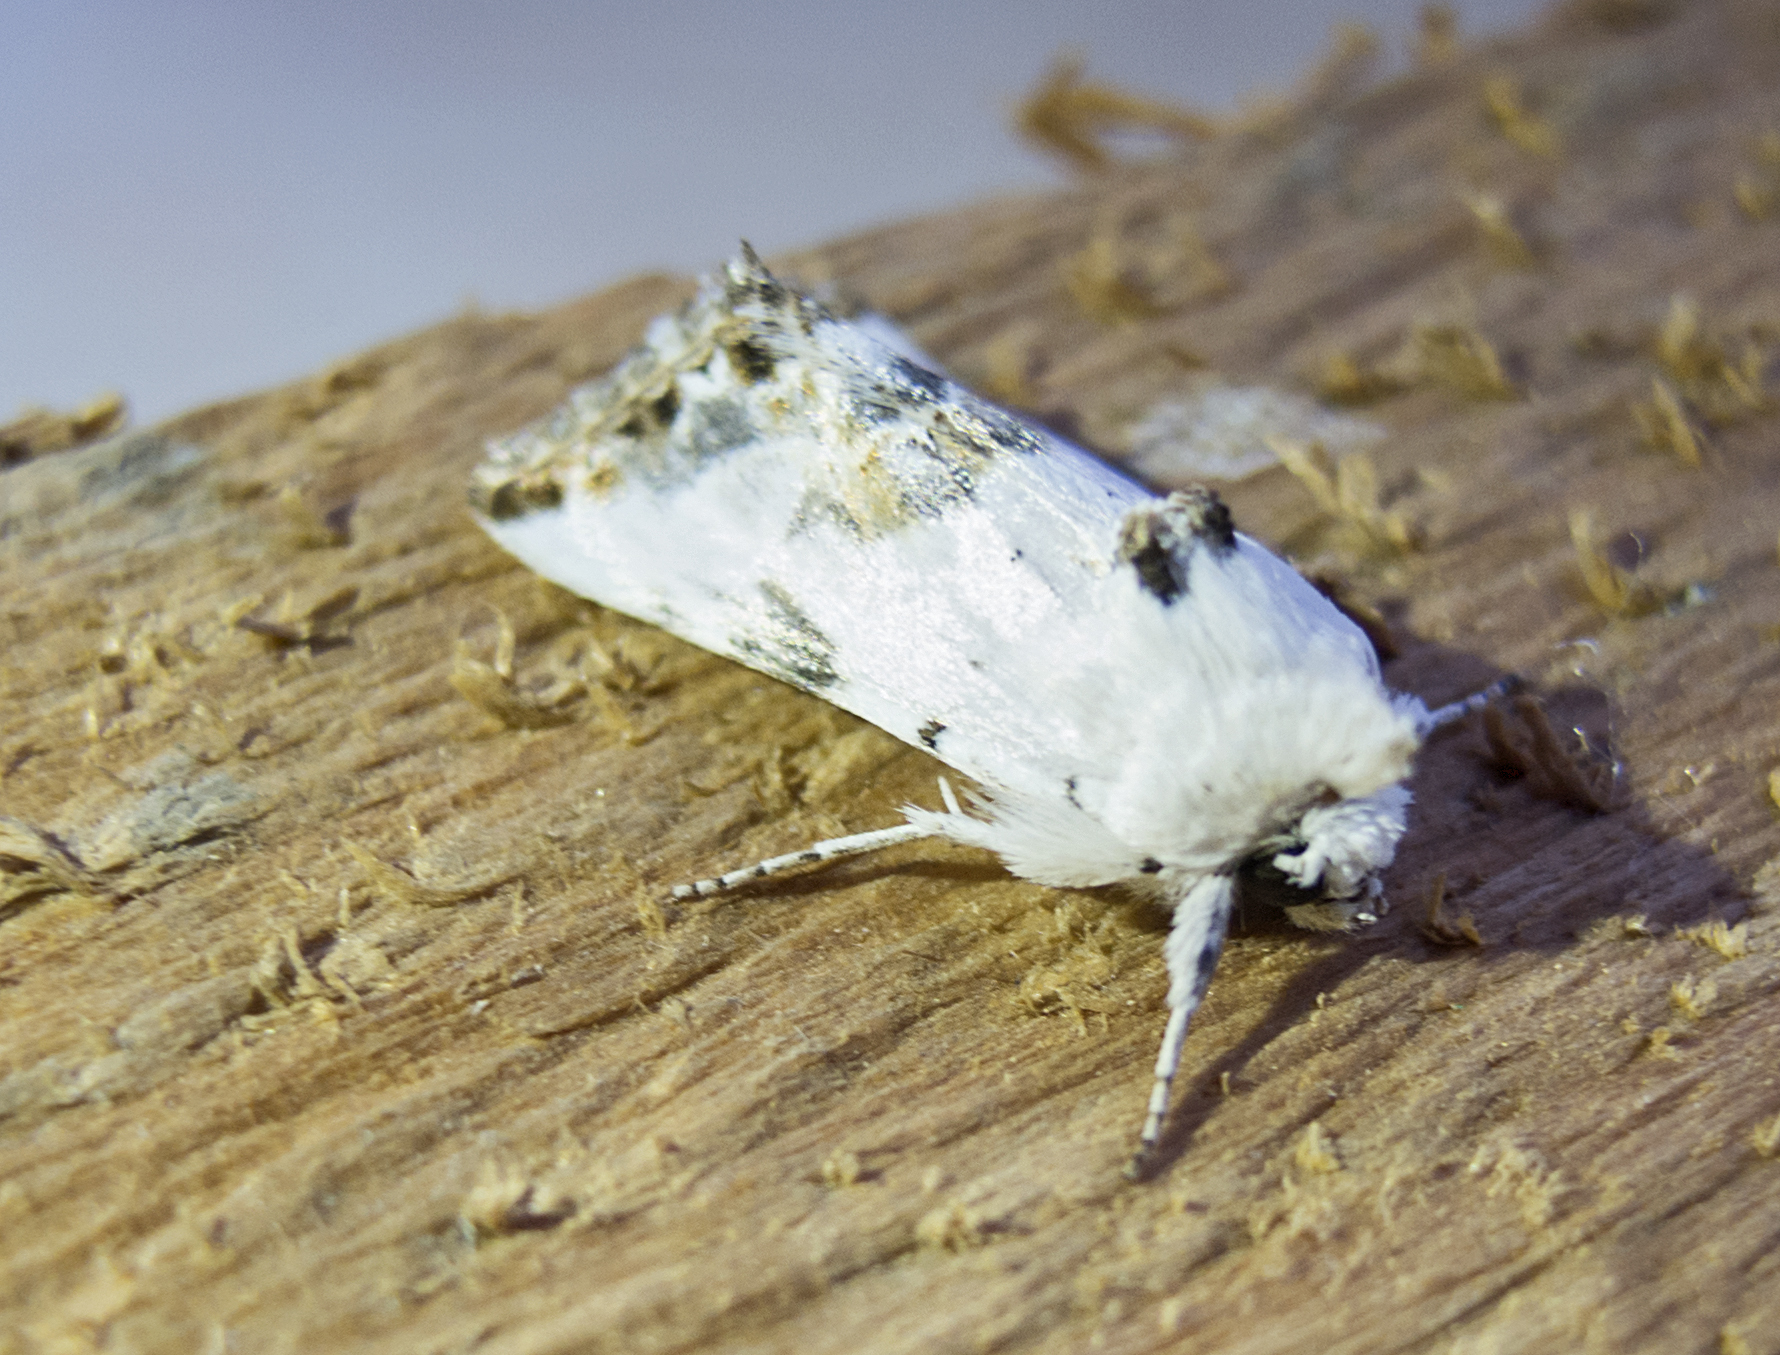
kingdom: Animalia
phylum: Arthropoda
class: Insecta
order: Lepidoptera
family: Noctuidae
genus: Calophasia
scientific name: Calophasia opalina
